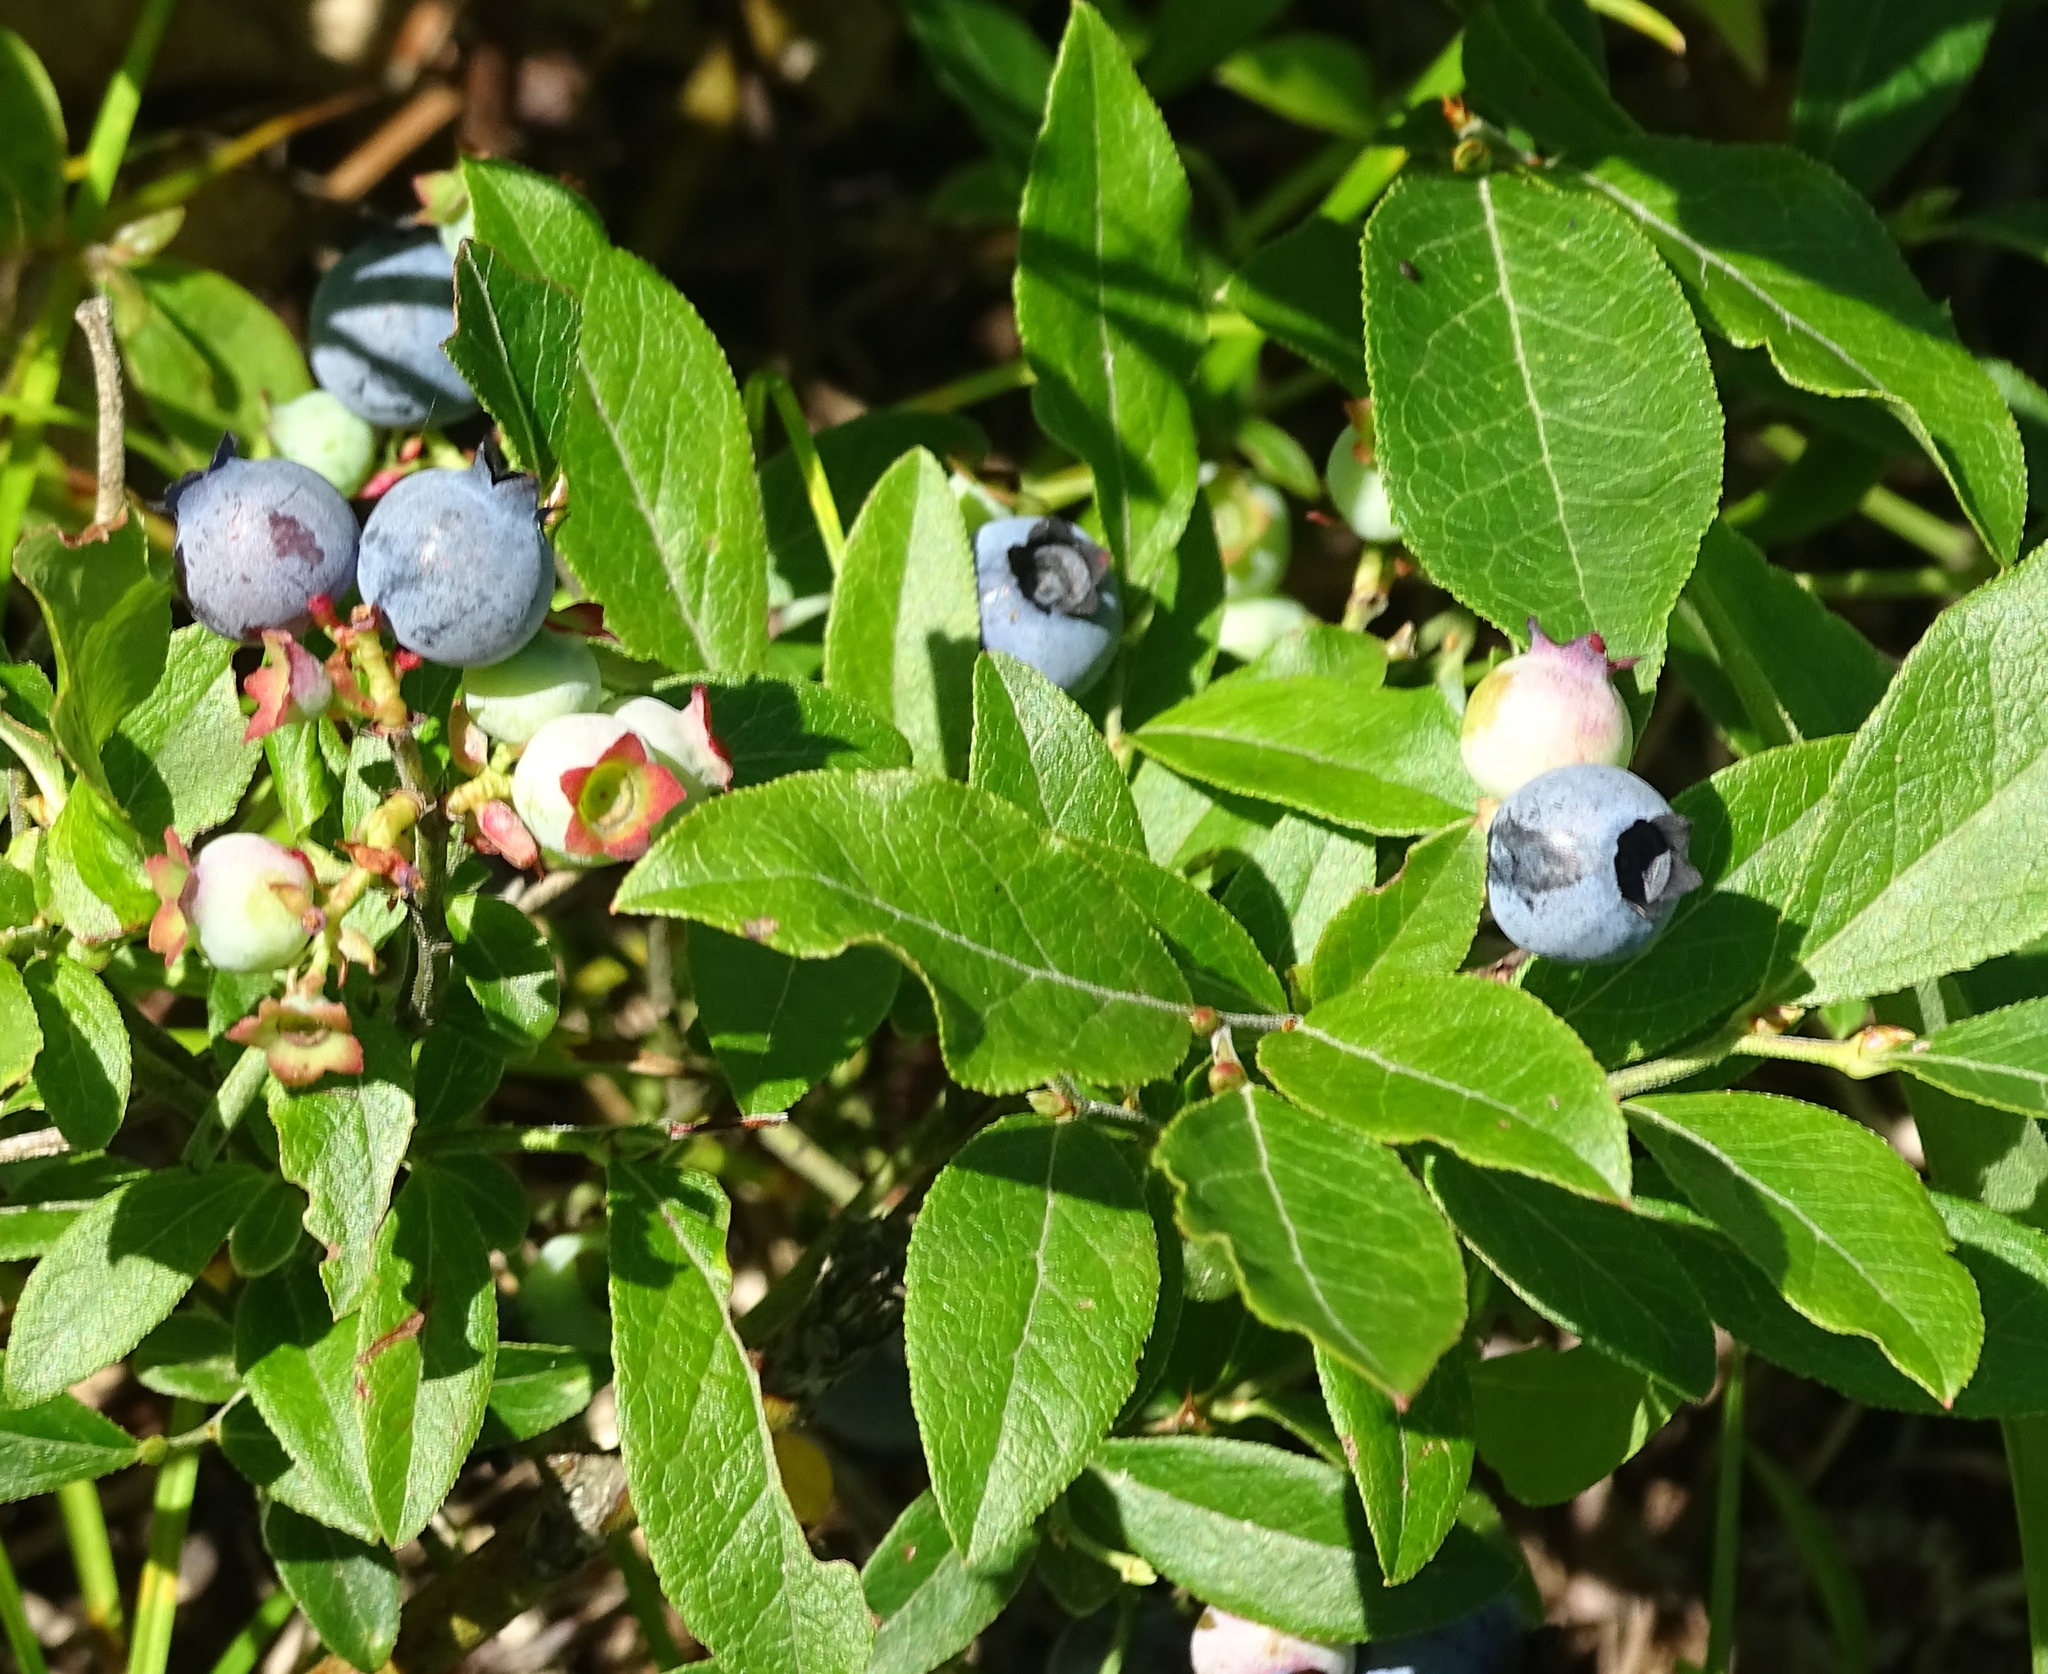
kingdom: Plantae
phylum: Tracheophyta
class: Magnoliopsida
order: Ericales
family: Ericaceae
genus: Vaccinium
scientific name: Vaccinium angustifolium
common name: Early lowbush blueberry
